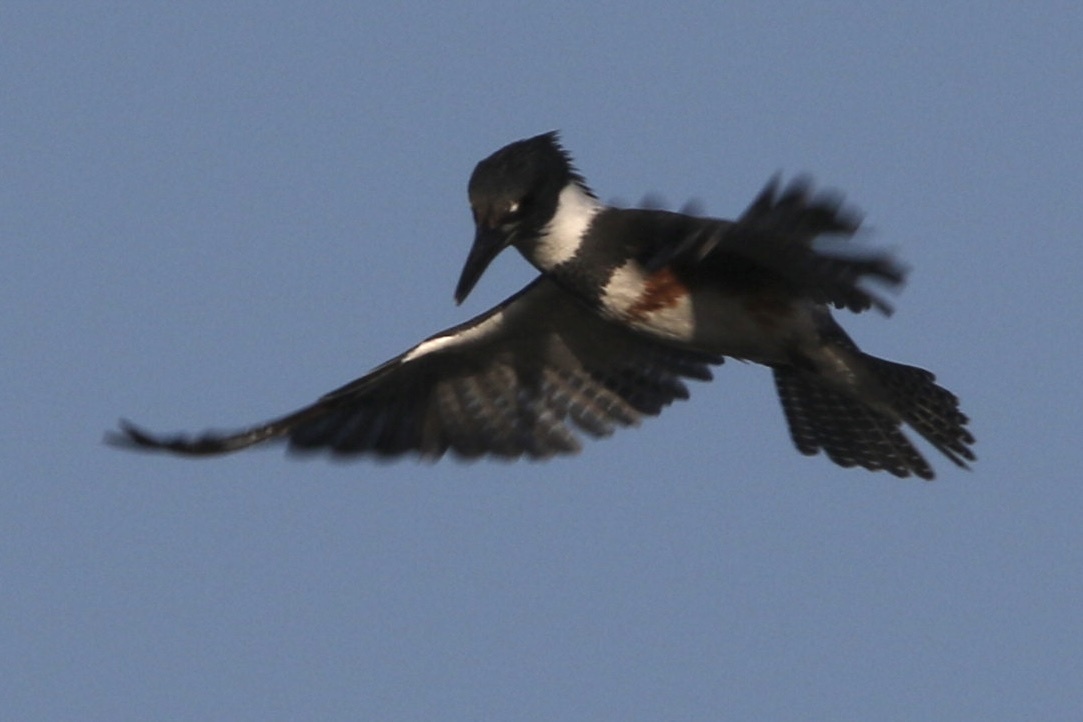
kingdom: Animalia
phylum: Chordata
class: Aves
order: Coraciiformes
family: Alcedinidae
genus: Megaceryle
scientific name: Megaceryle alcyon
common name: Belted kingfisher
